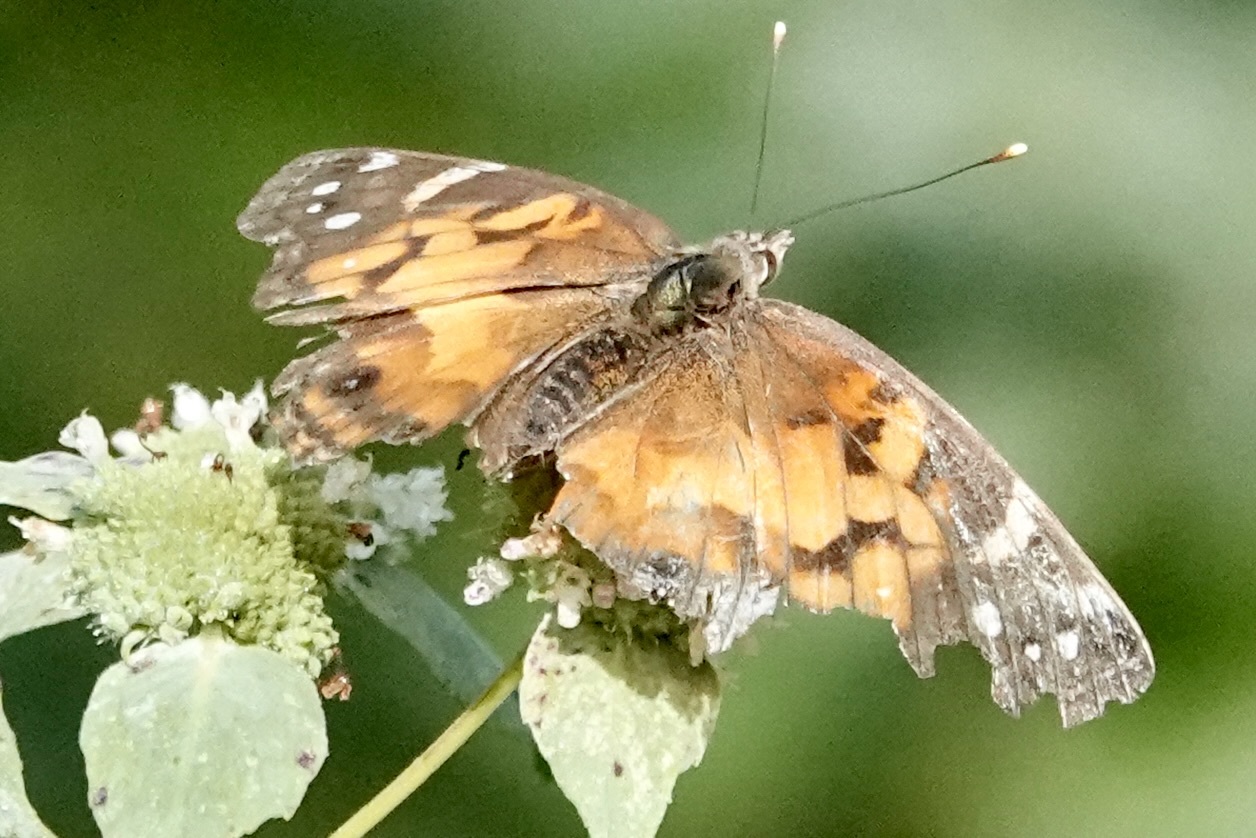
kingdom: Animalia
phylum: Arthropoda
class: Insecta
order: Lepidoptera
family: Nymphalidae
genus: Vanessa
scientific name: Vanessa virginiensis
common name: American lady
